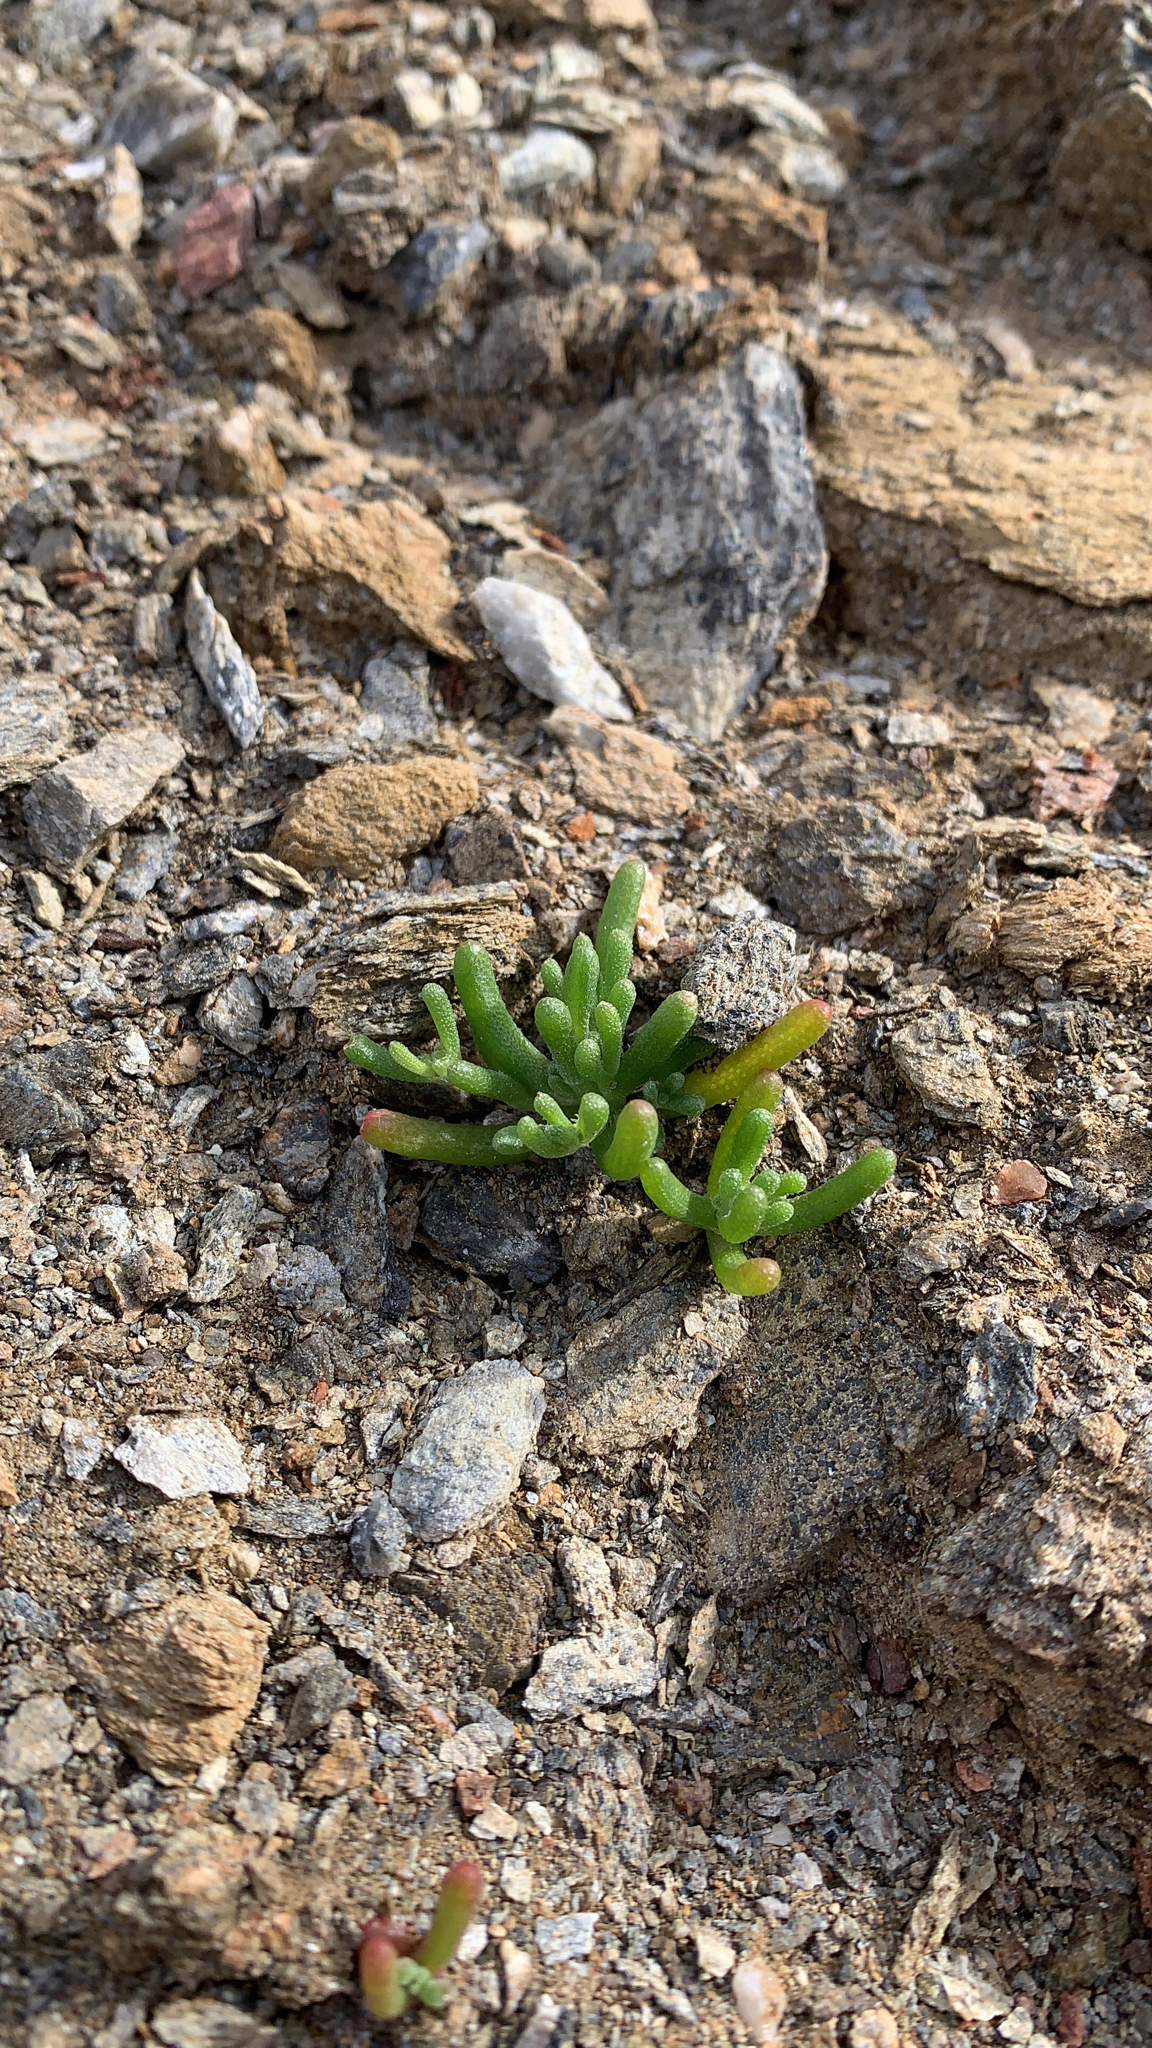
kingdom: Plantae
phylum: Tracheophyta
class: Magnoliopsida
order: Caryophyllales
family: Aizoaceae
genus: Mesembryanthemum
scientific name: Mesembryanthemum nodiflorum
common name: Slenderleaf iceplant
